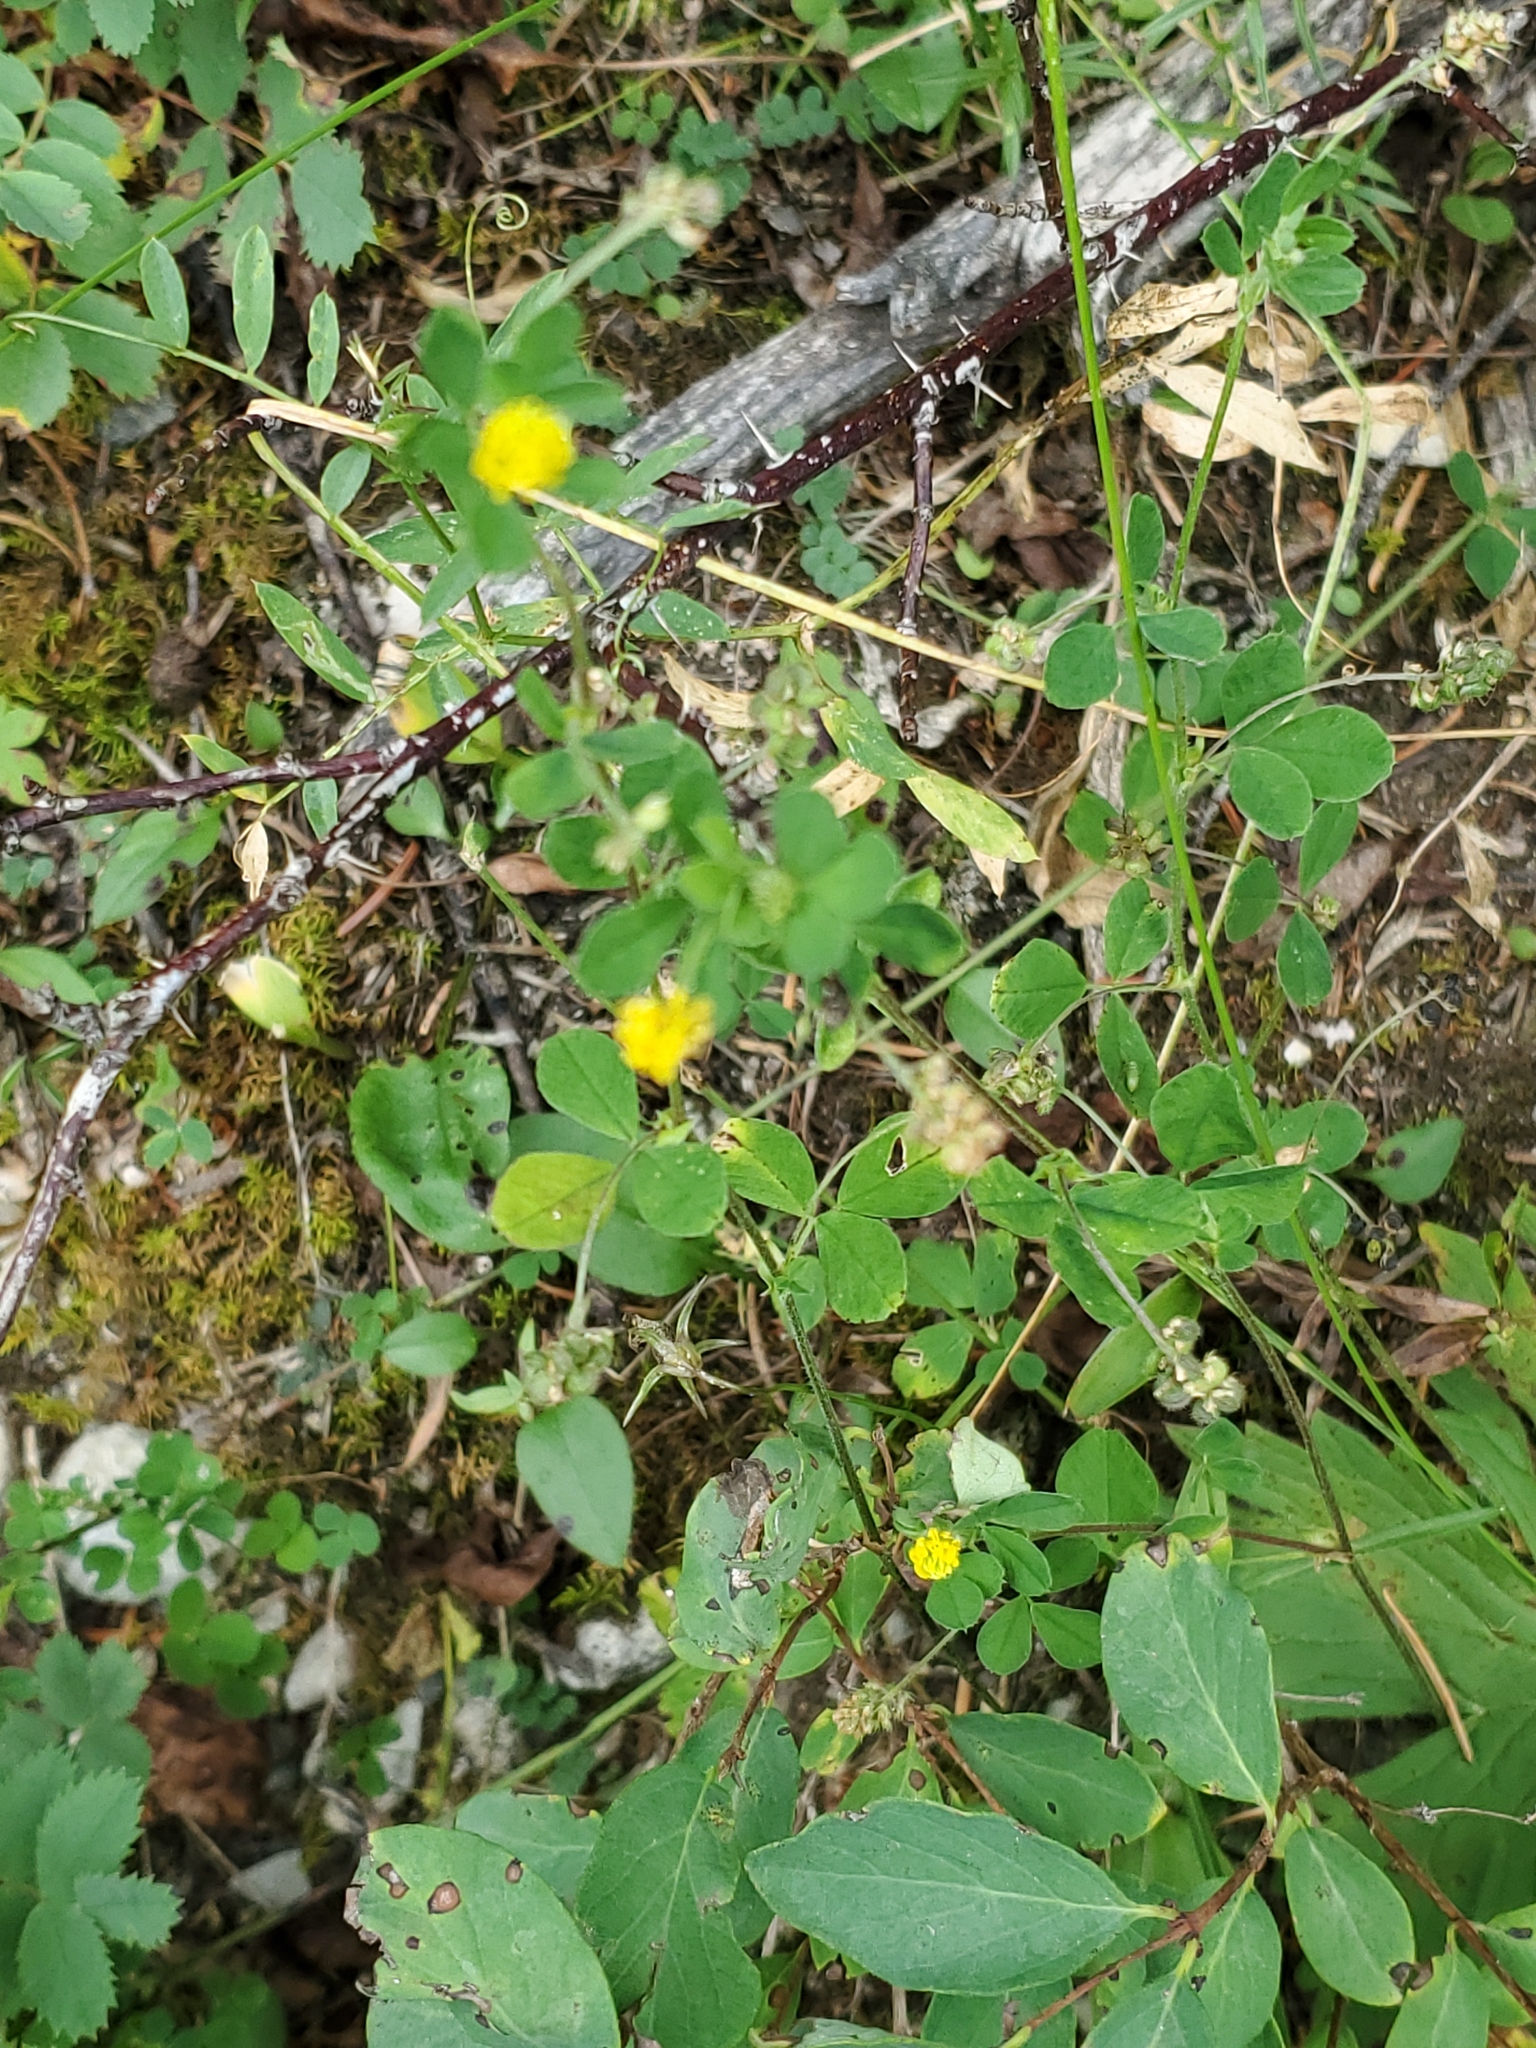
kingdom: Plantae
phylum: Tracheophyta
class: Magnoliopsida
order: Fabales
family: Fabaceae
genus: Medicago
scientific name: Medicago lupulina
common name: Black medick
